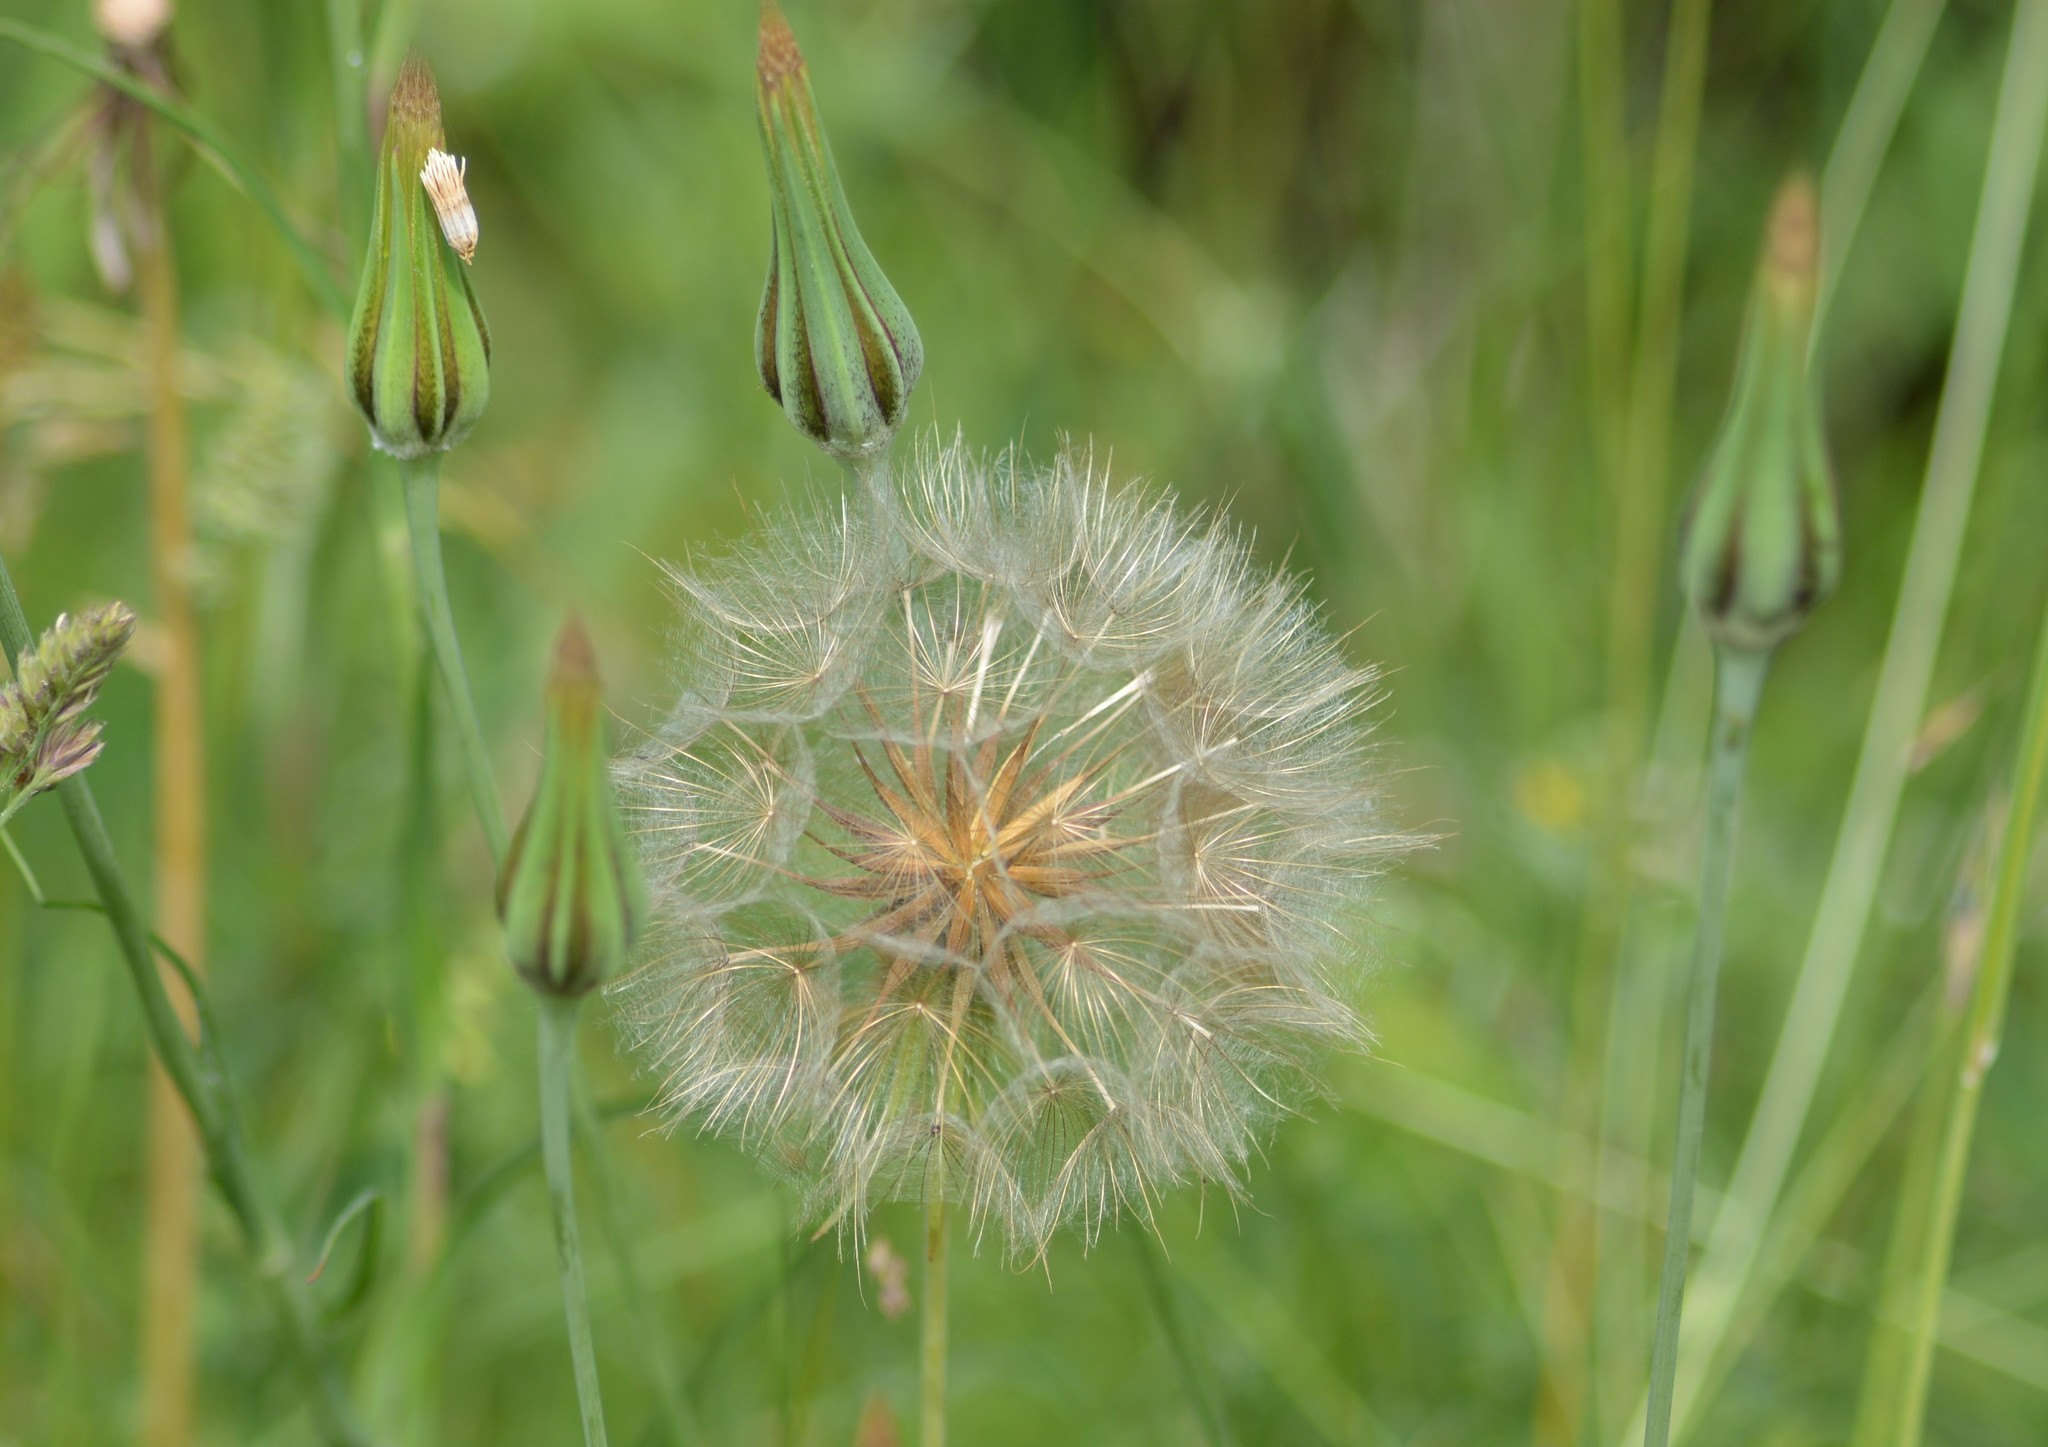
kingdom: Plantae
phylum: Tracheophyta
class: Magnoliopsida
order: Asterales
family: Asteraceae
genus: Tragopogon
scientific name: Tragopogon pratensis
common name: Goat's-beard
